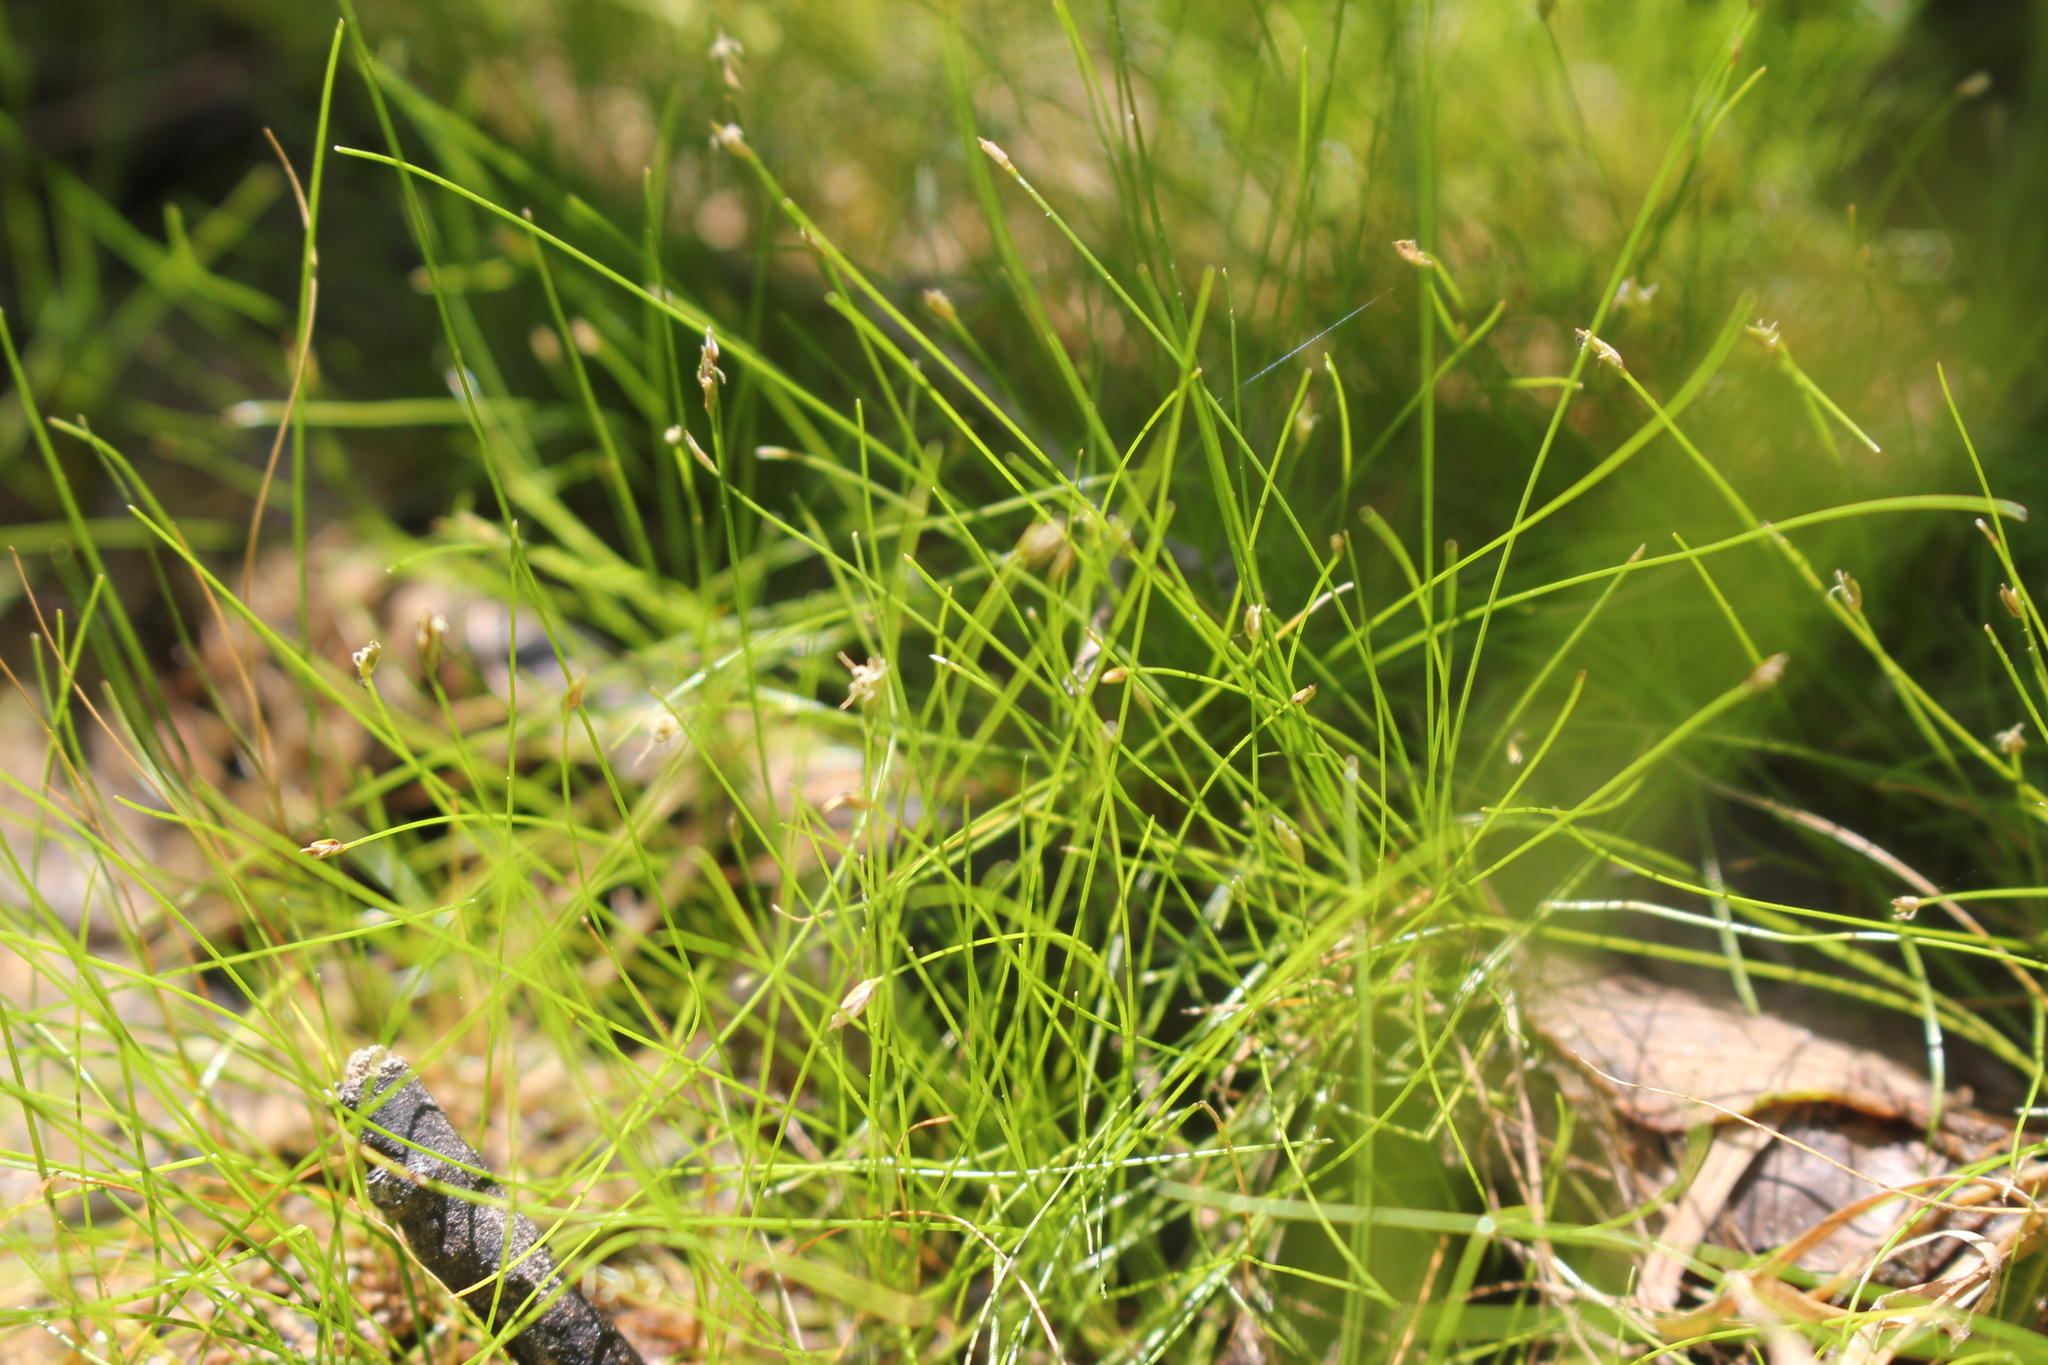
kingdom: Plantae
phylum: Tracheophyta
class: Liliopsida
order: Poales
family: Cyperaceae
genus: Eleocharis
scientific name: Eleocharis acicularis
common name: Needle spike-rush
